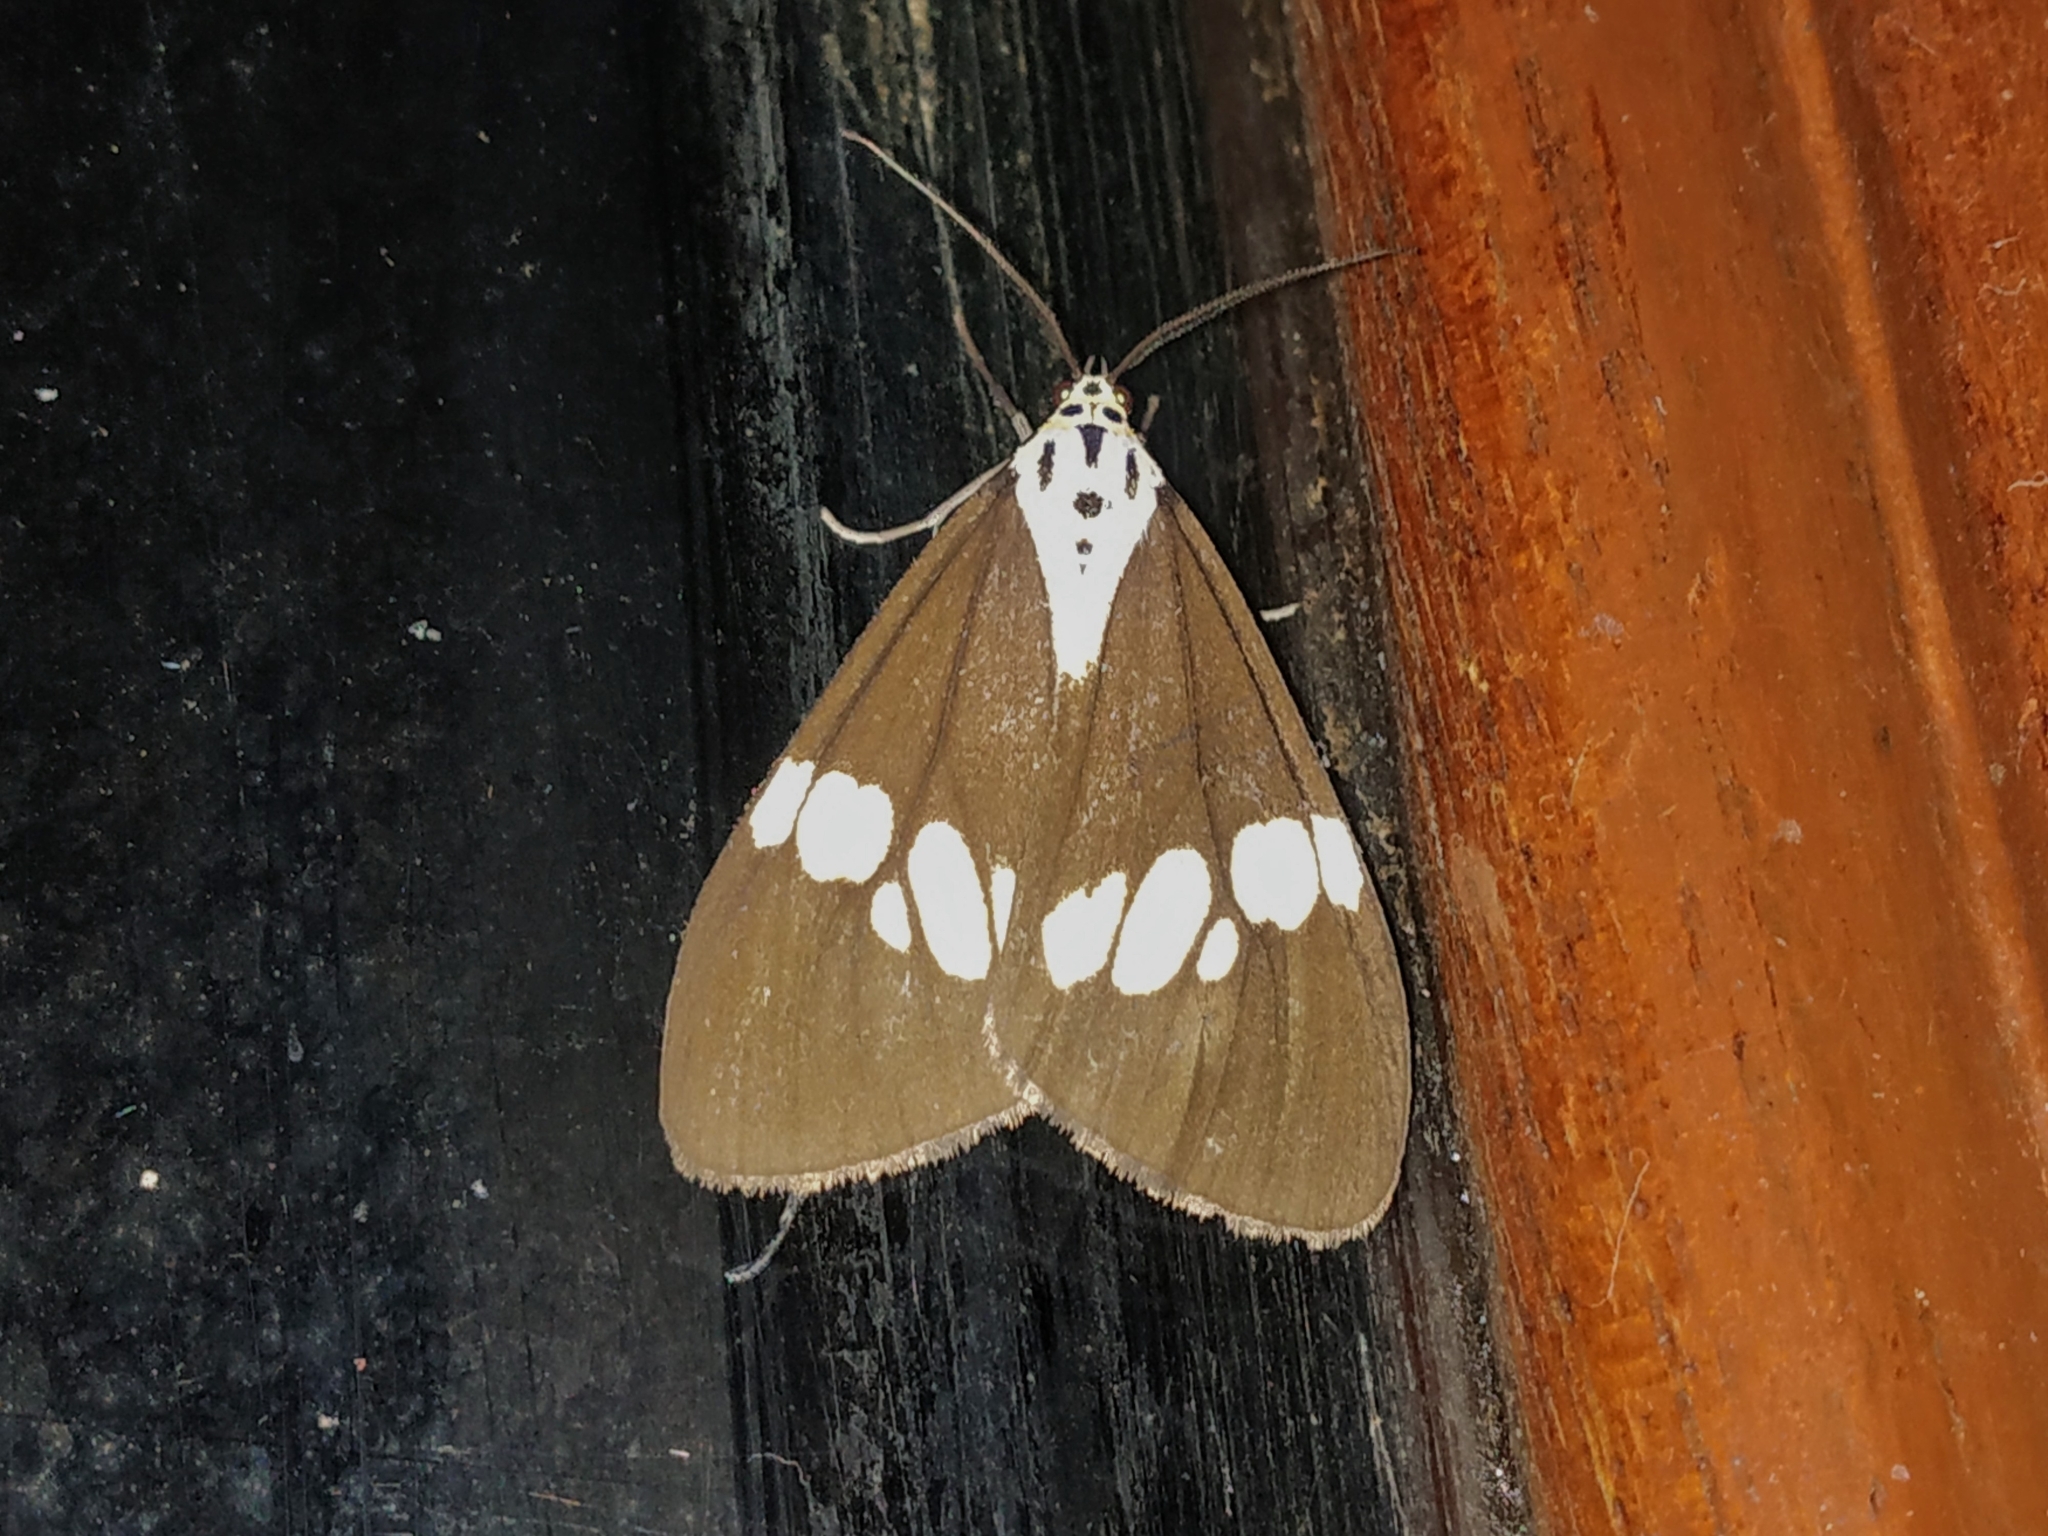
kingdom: Animalia
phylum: Arthropoda
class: Insecta
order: Lepidoptera
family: Erebidae
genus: Nyctemera
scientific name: Nyctemera lacticinia
